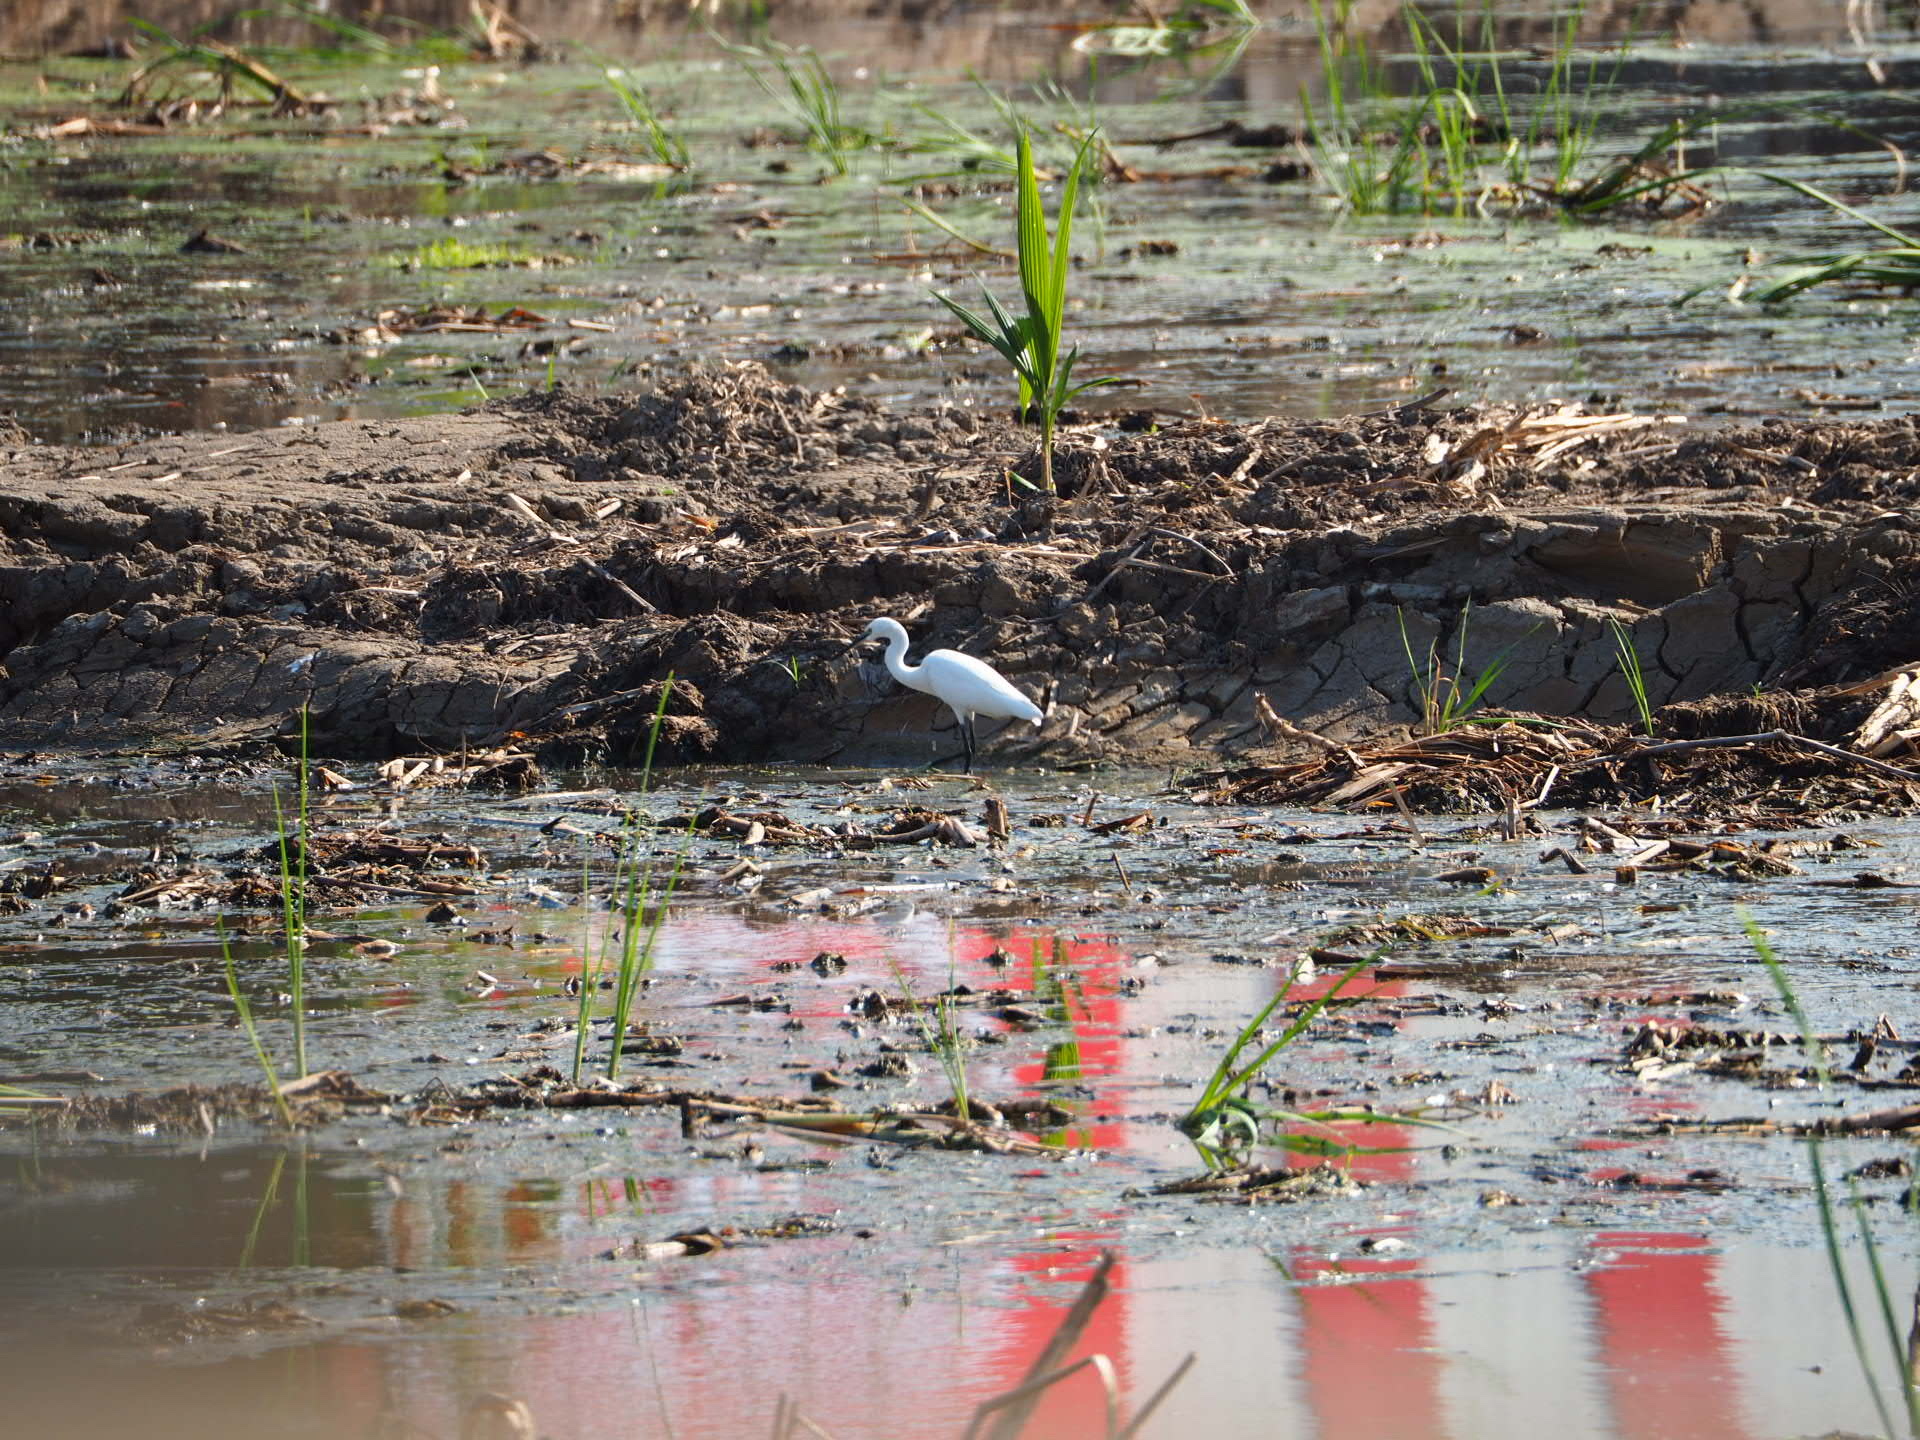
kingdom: Animalia
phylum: Chordata
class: Aves
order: Pelecaniformes
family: Ardeidae
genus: Egretta
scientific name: Egretta garzetta
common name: Little egret
